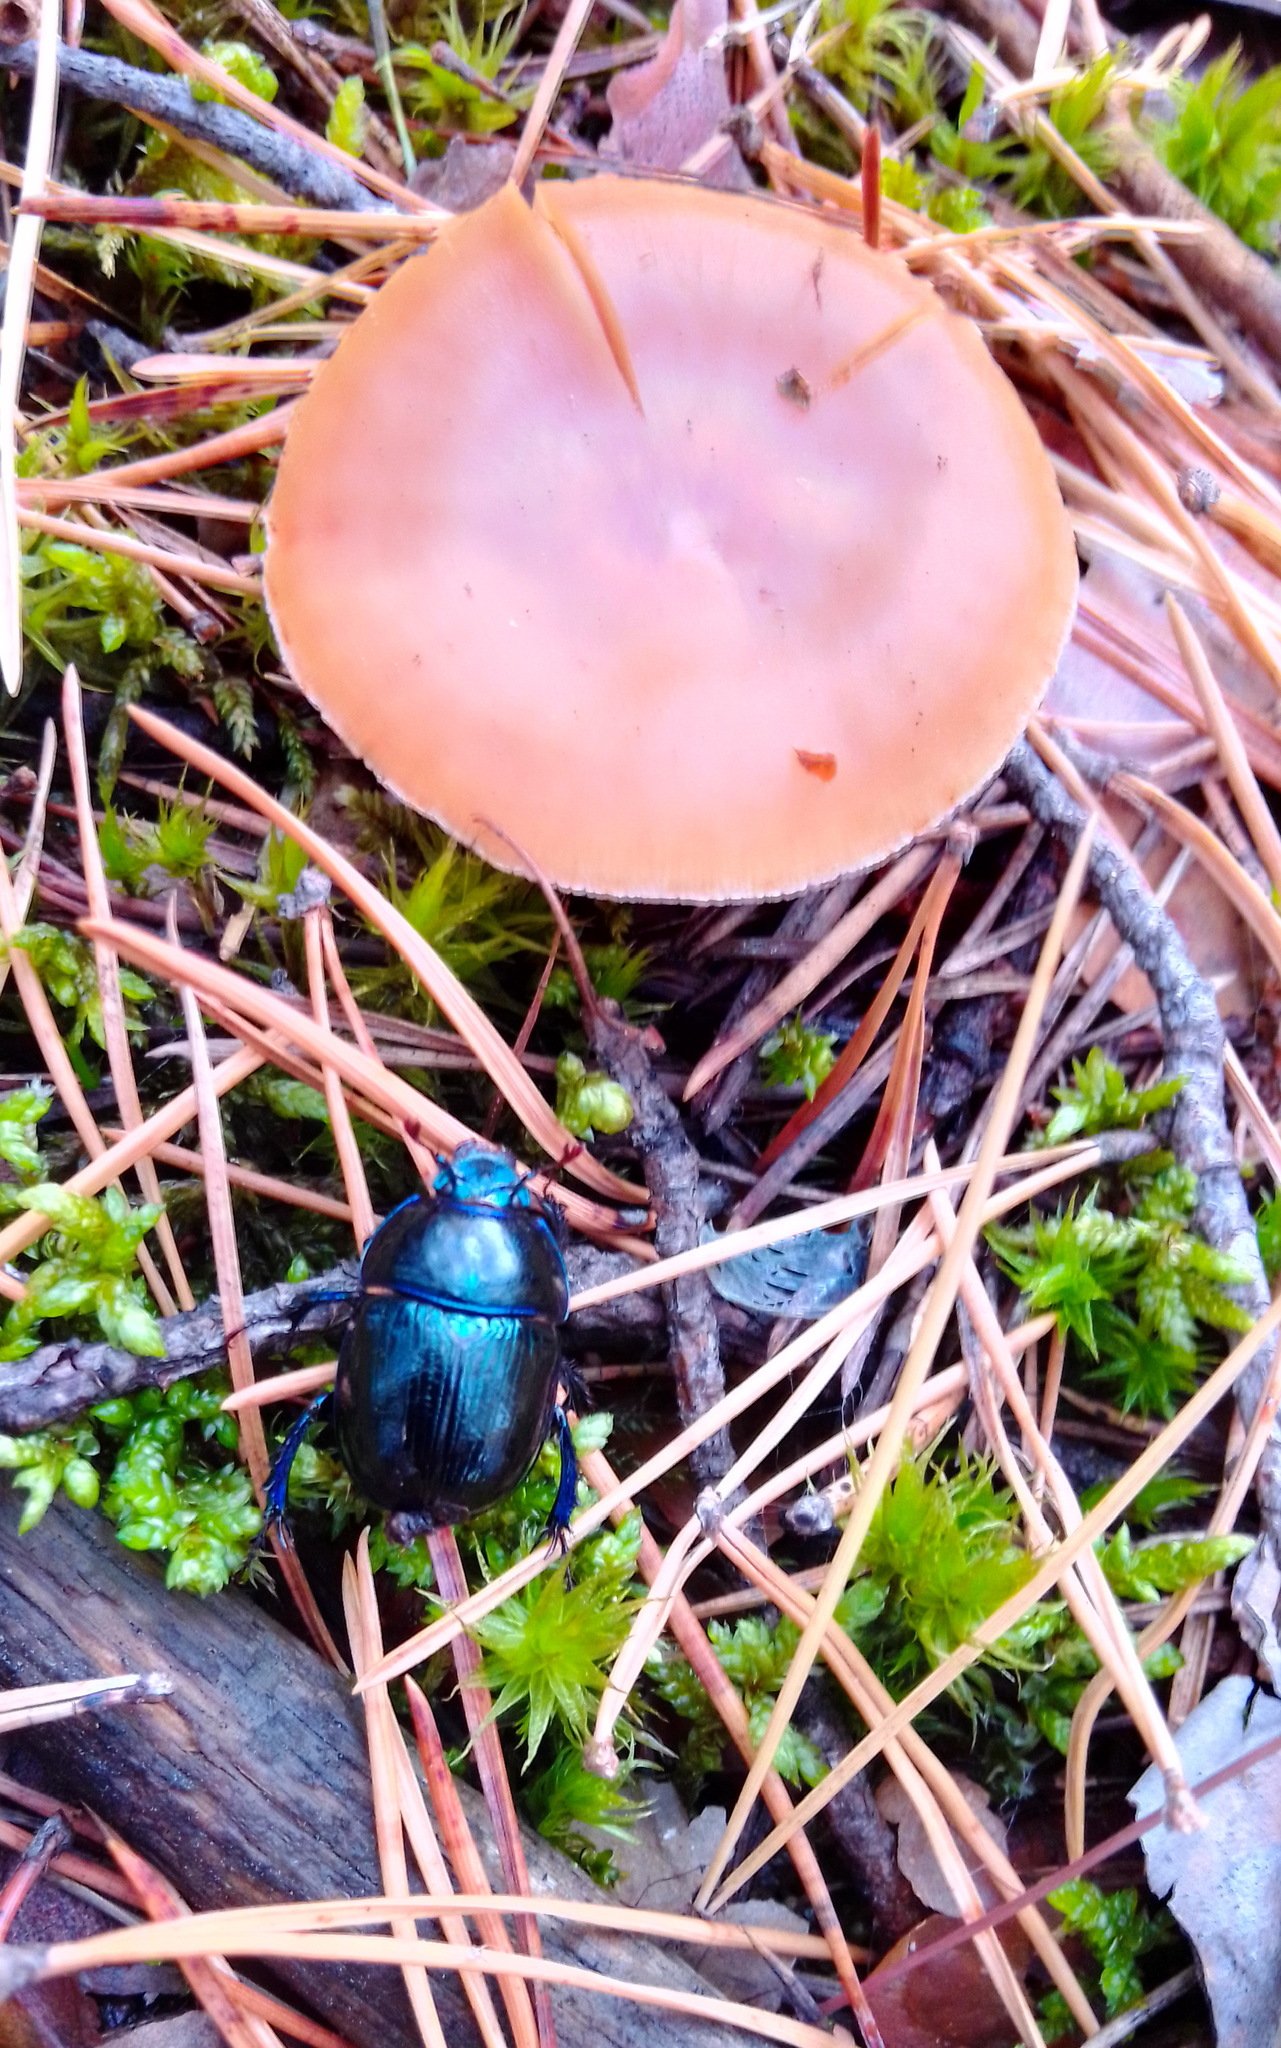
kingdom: Animalia
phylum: Arthropoda
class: Insecta
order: Coleoptera
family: Geotrupidae
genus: Anoplotrupes
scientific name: Anoplotrupes stercorosus
